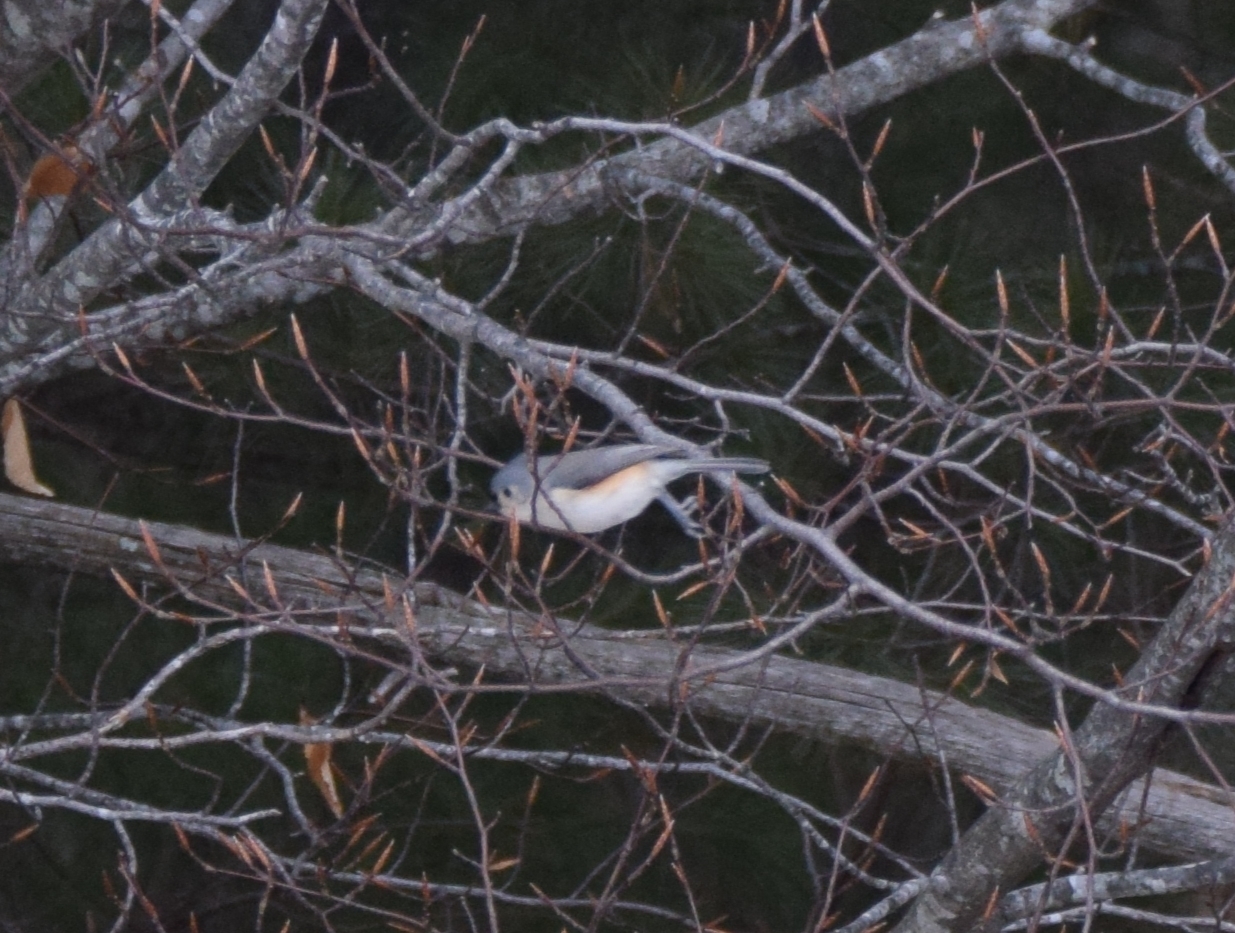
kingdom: Animalia
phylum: Chordata
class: Aves
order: Passeriformes
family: Paridae
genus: Baeolophus
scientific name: Baeolophus bicolor
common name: Tufted titmouse
